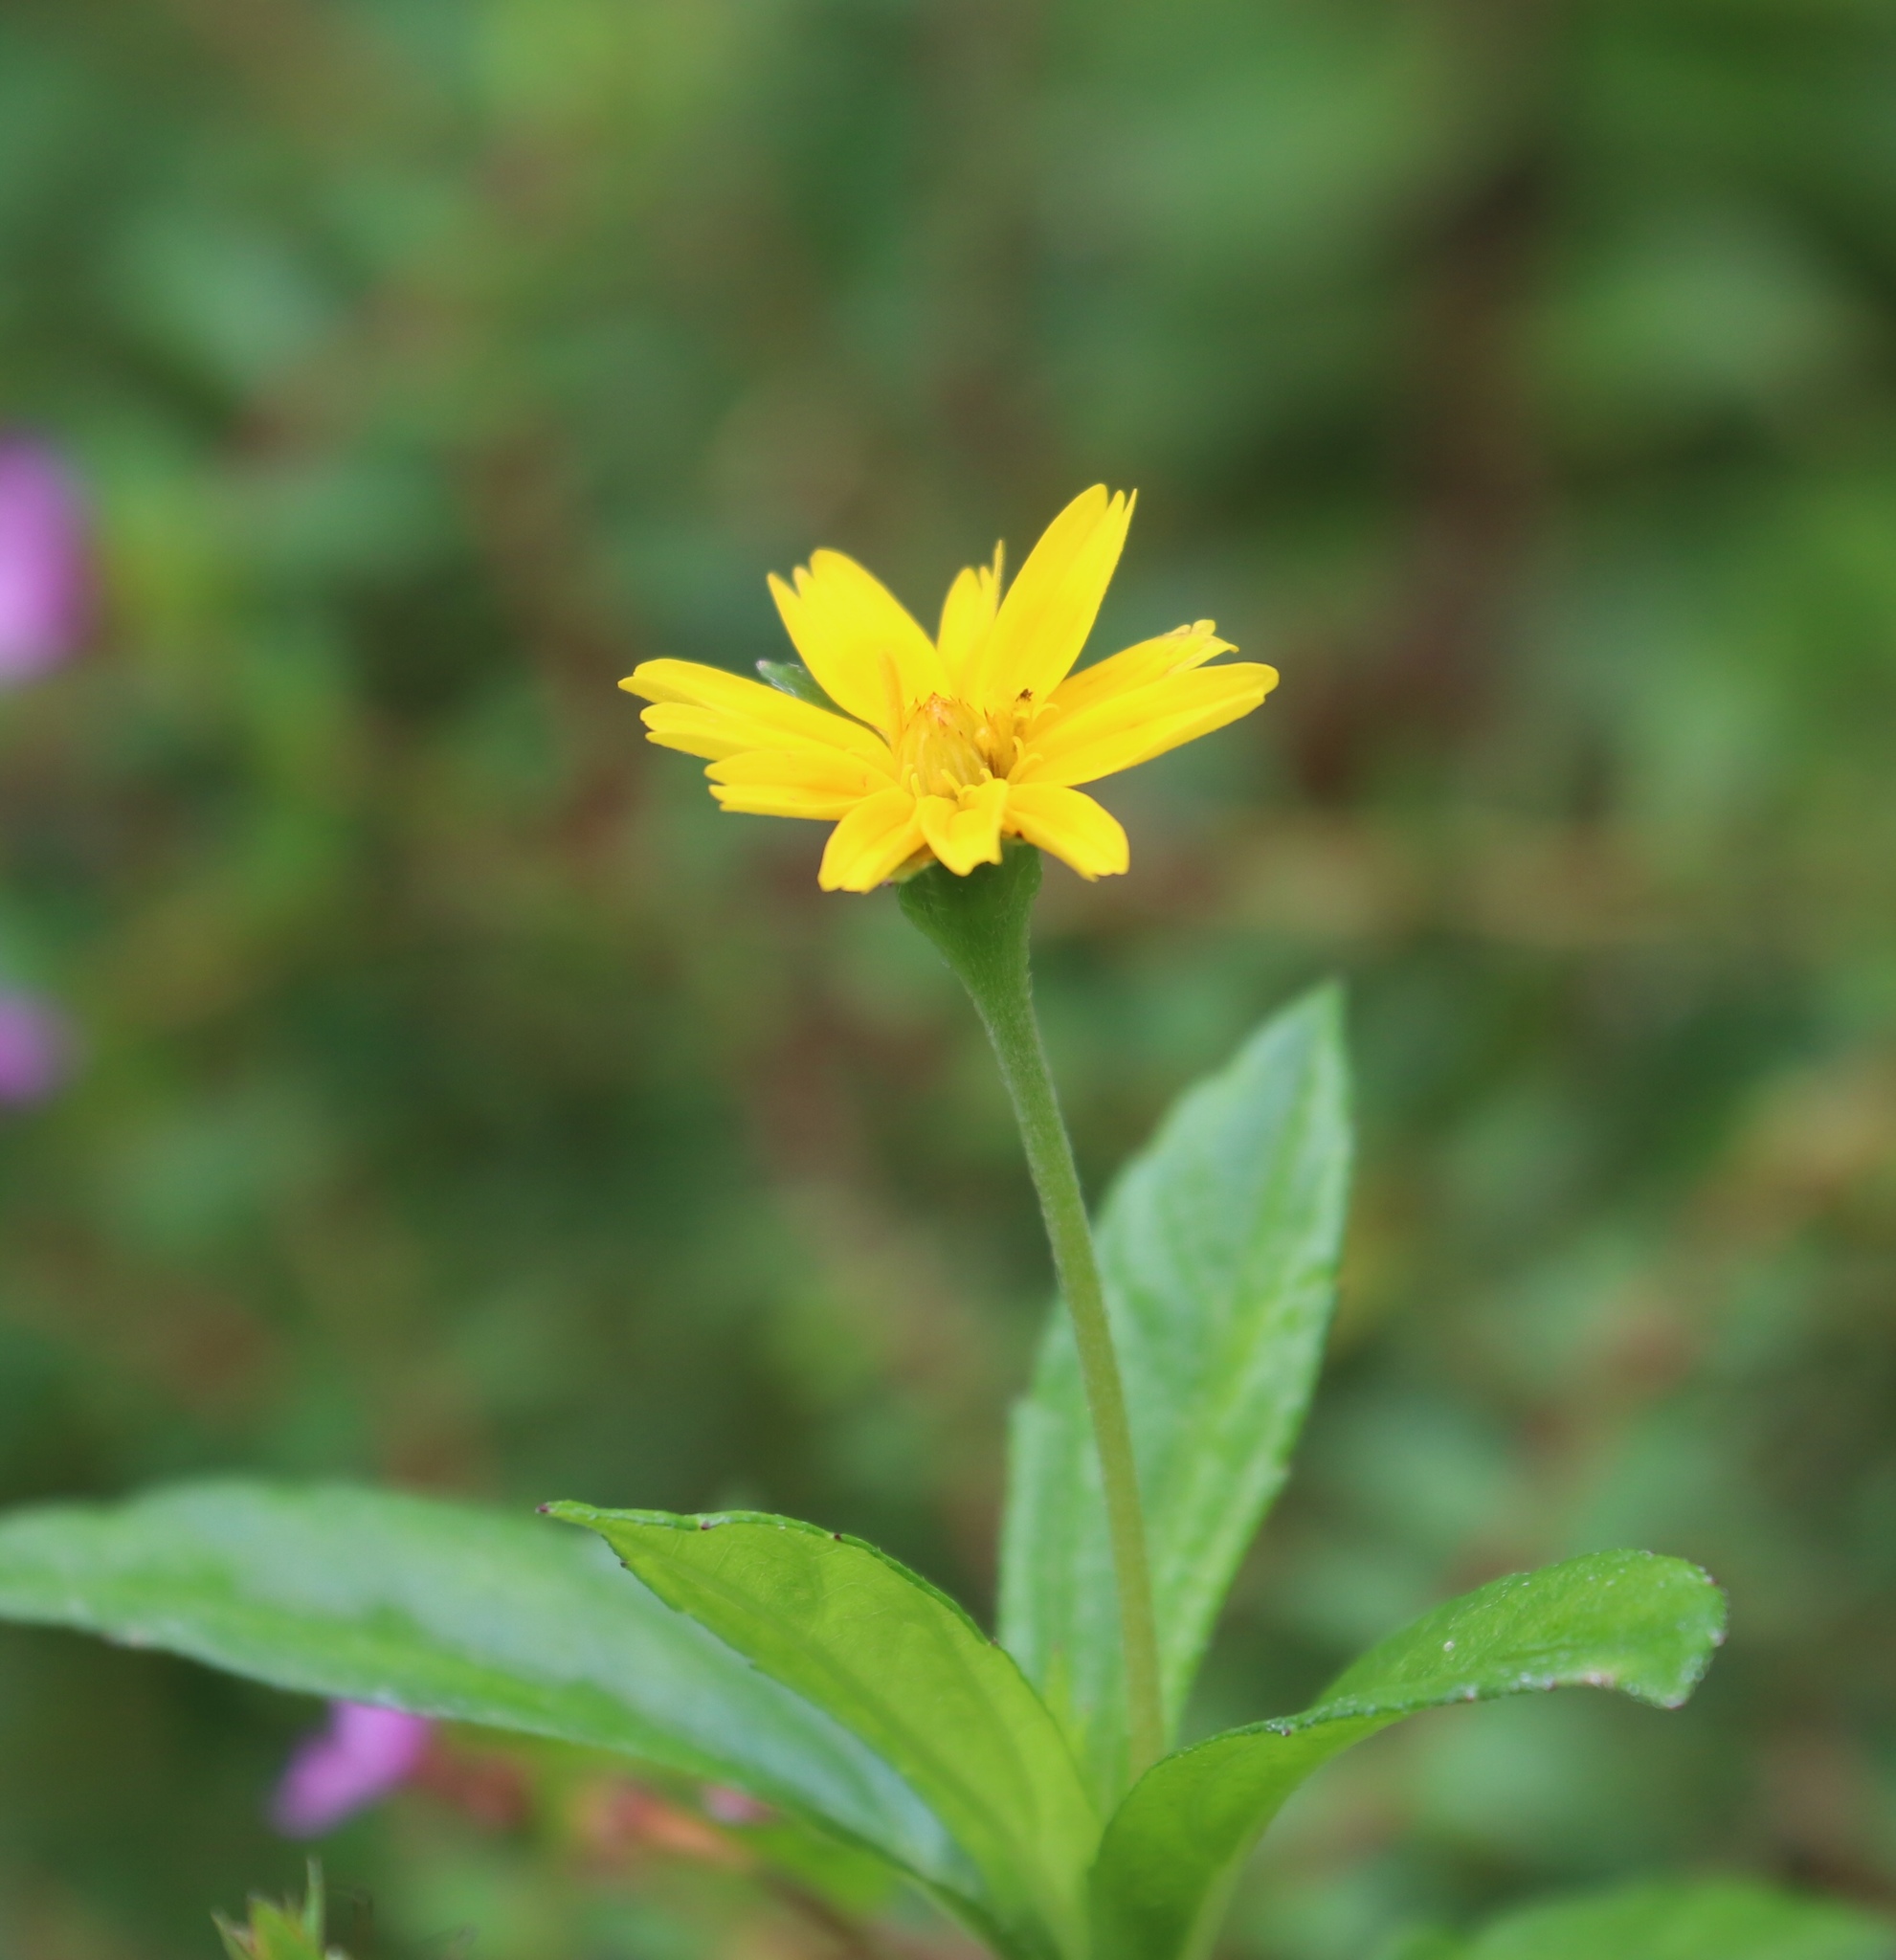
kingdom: Plantae
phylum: Tracheophyta
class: Magnoliopsida
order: Asterales
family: Asteraceae
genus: Sphagneticola
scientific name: Sphagneticola trilobata
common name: Bay biscayne creeping-oxeye
